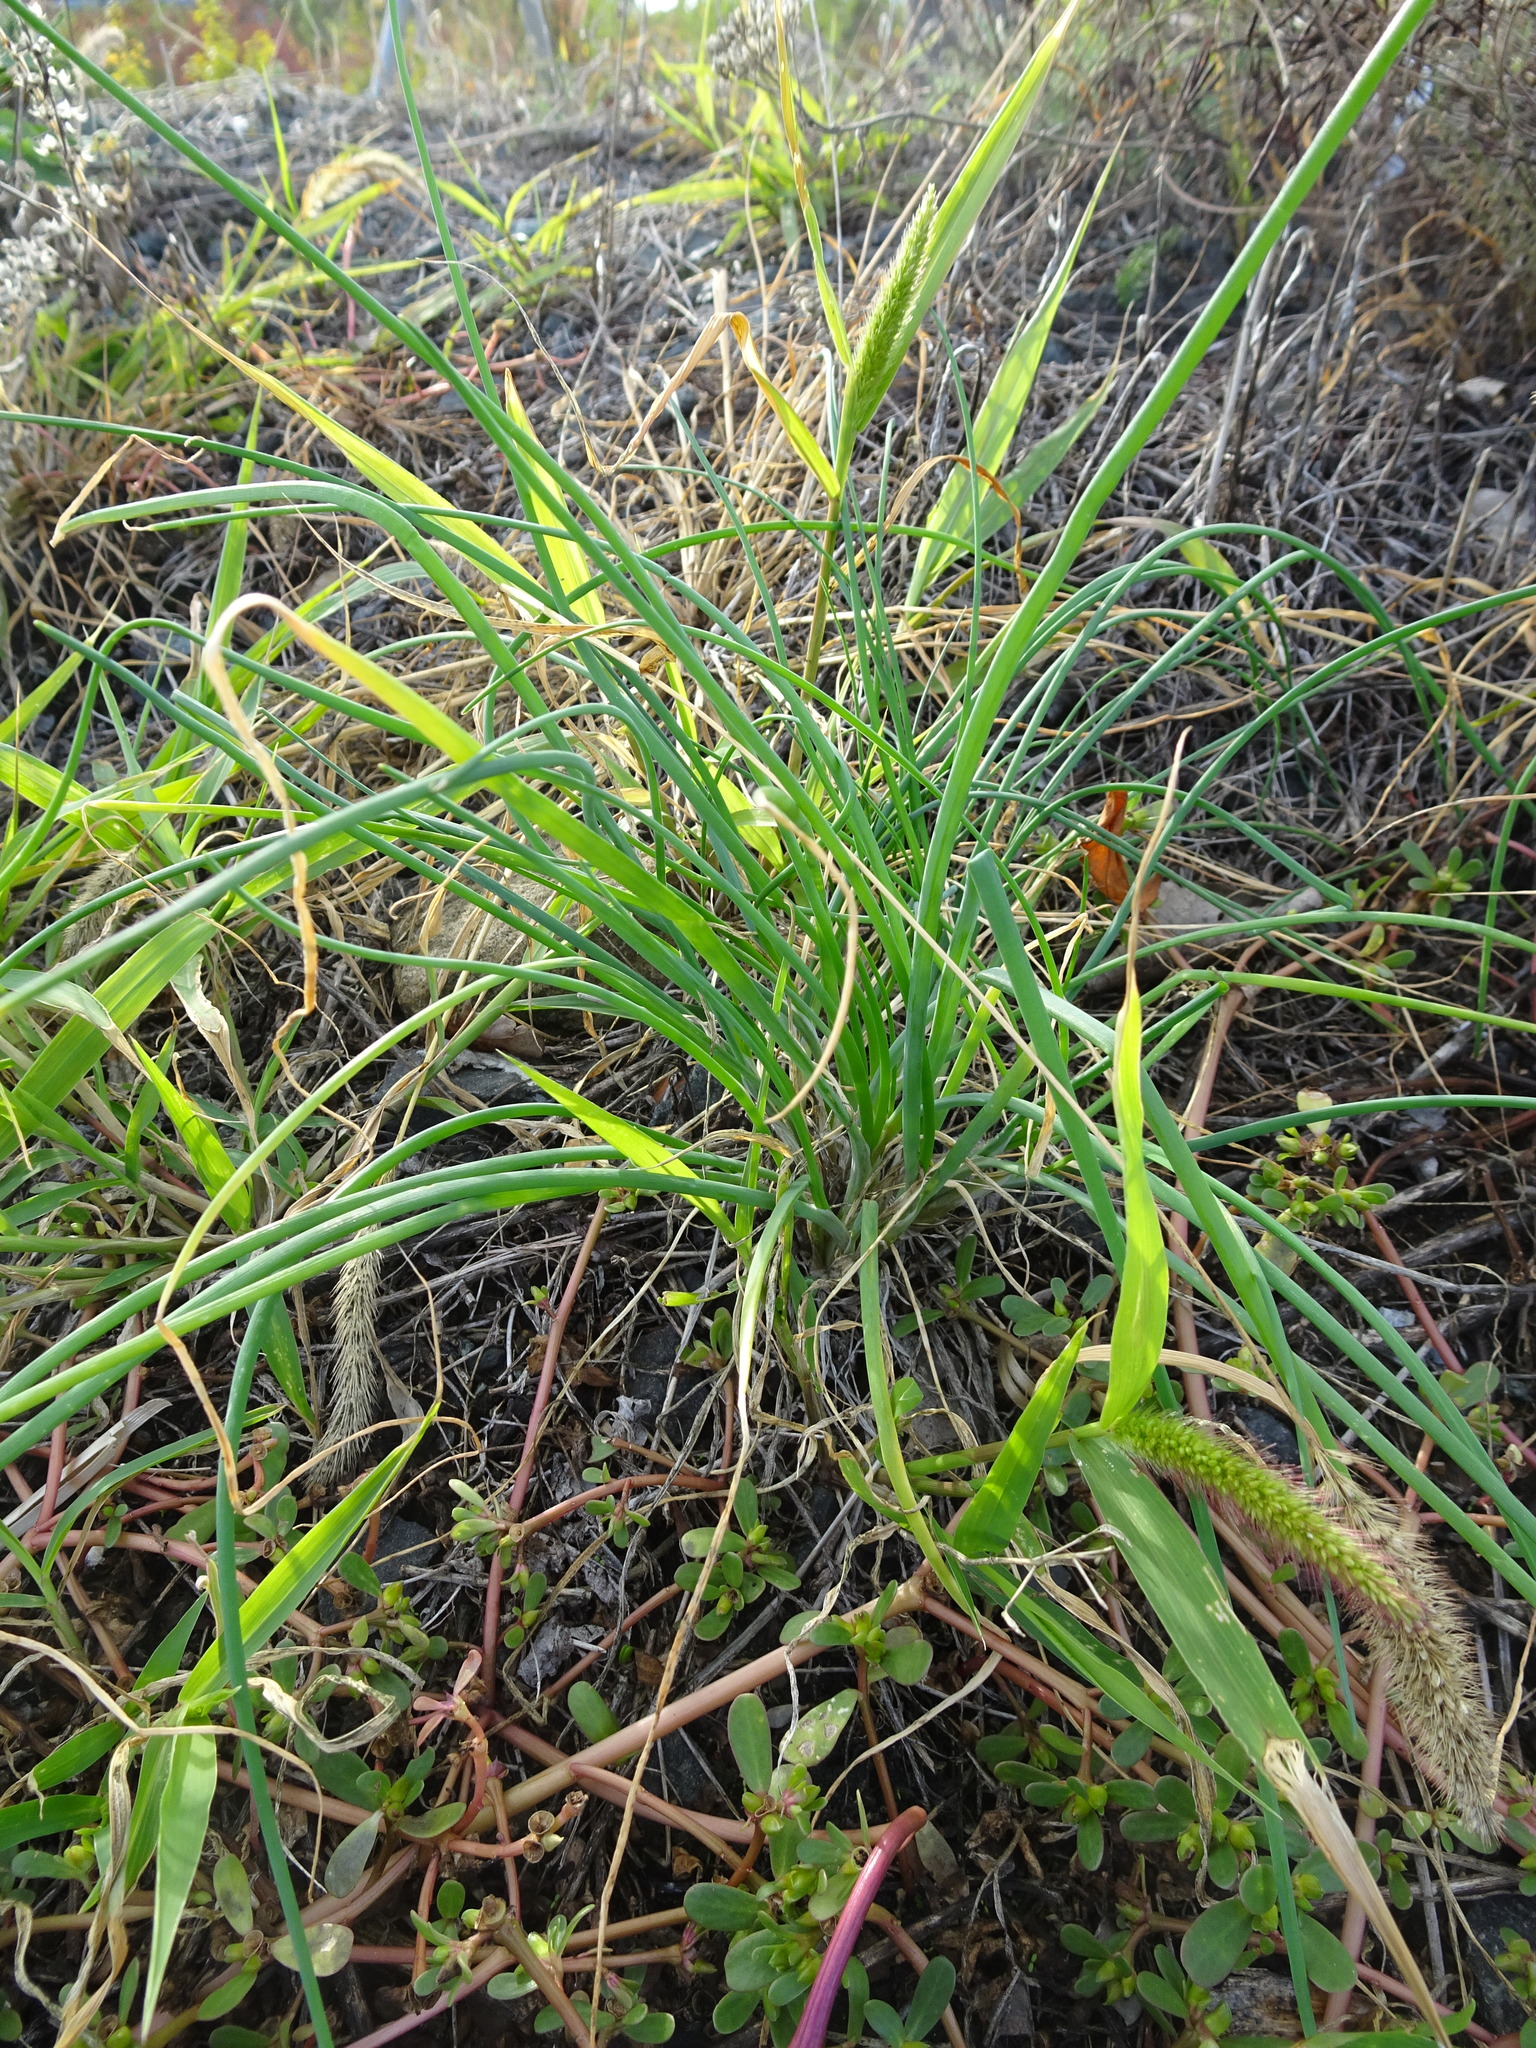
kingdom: Plantae
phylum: Tracheophyta
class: Liliopsida
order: Asparagales
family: Amaryllidaceae
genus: Allium
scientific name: Allium schoenoprasum
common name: Chives
